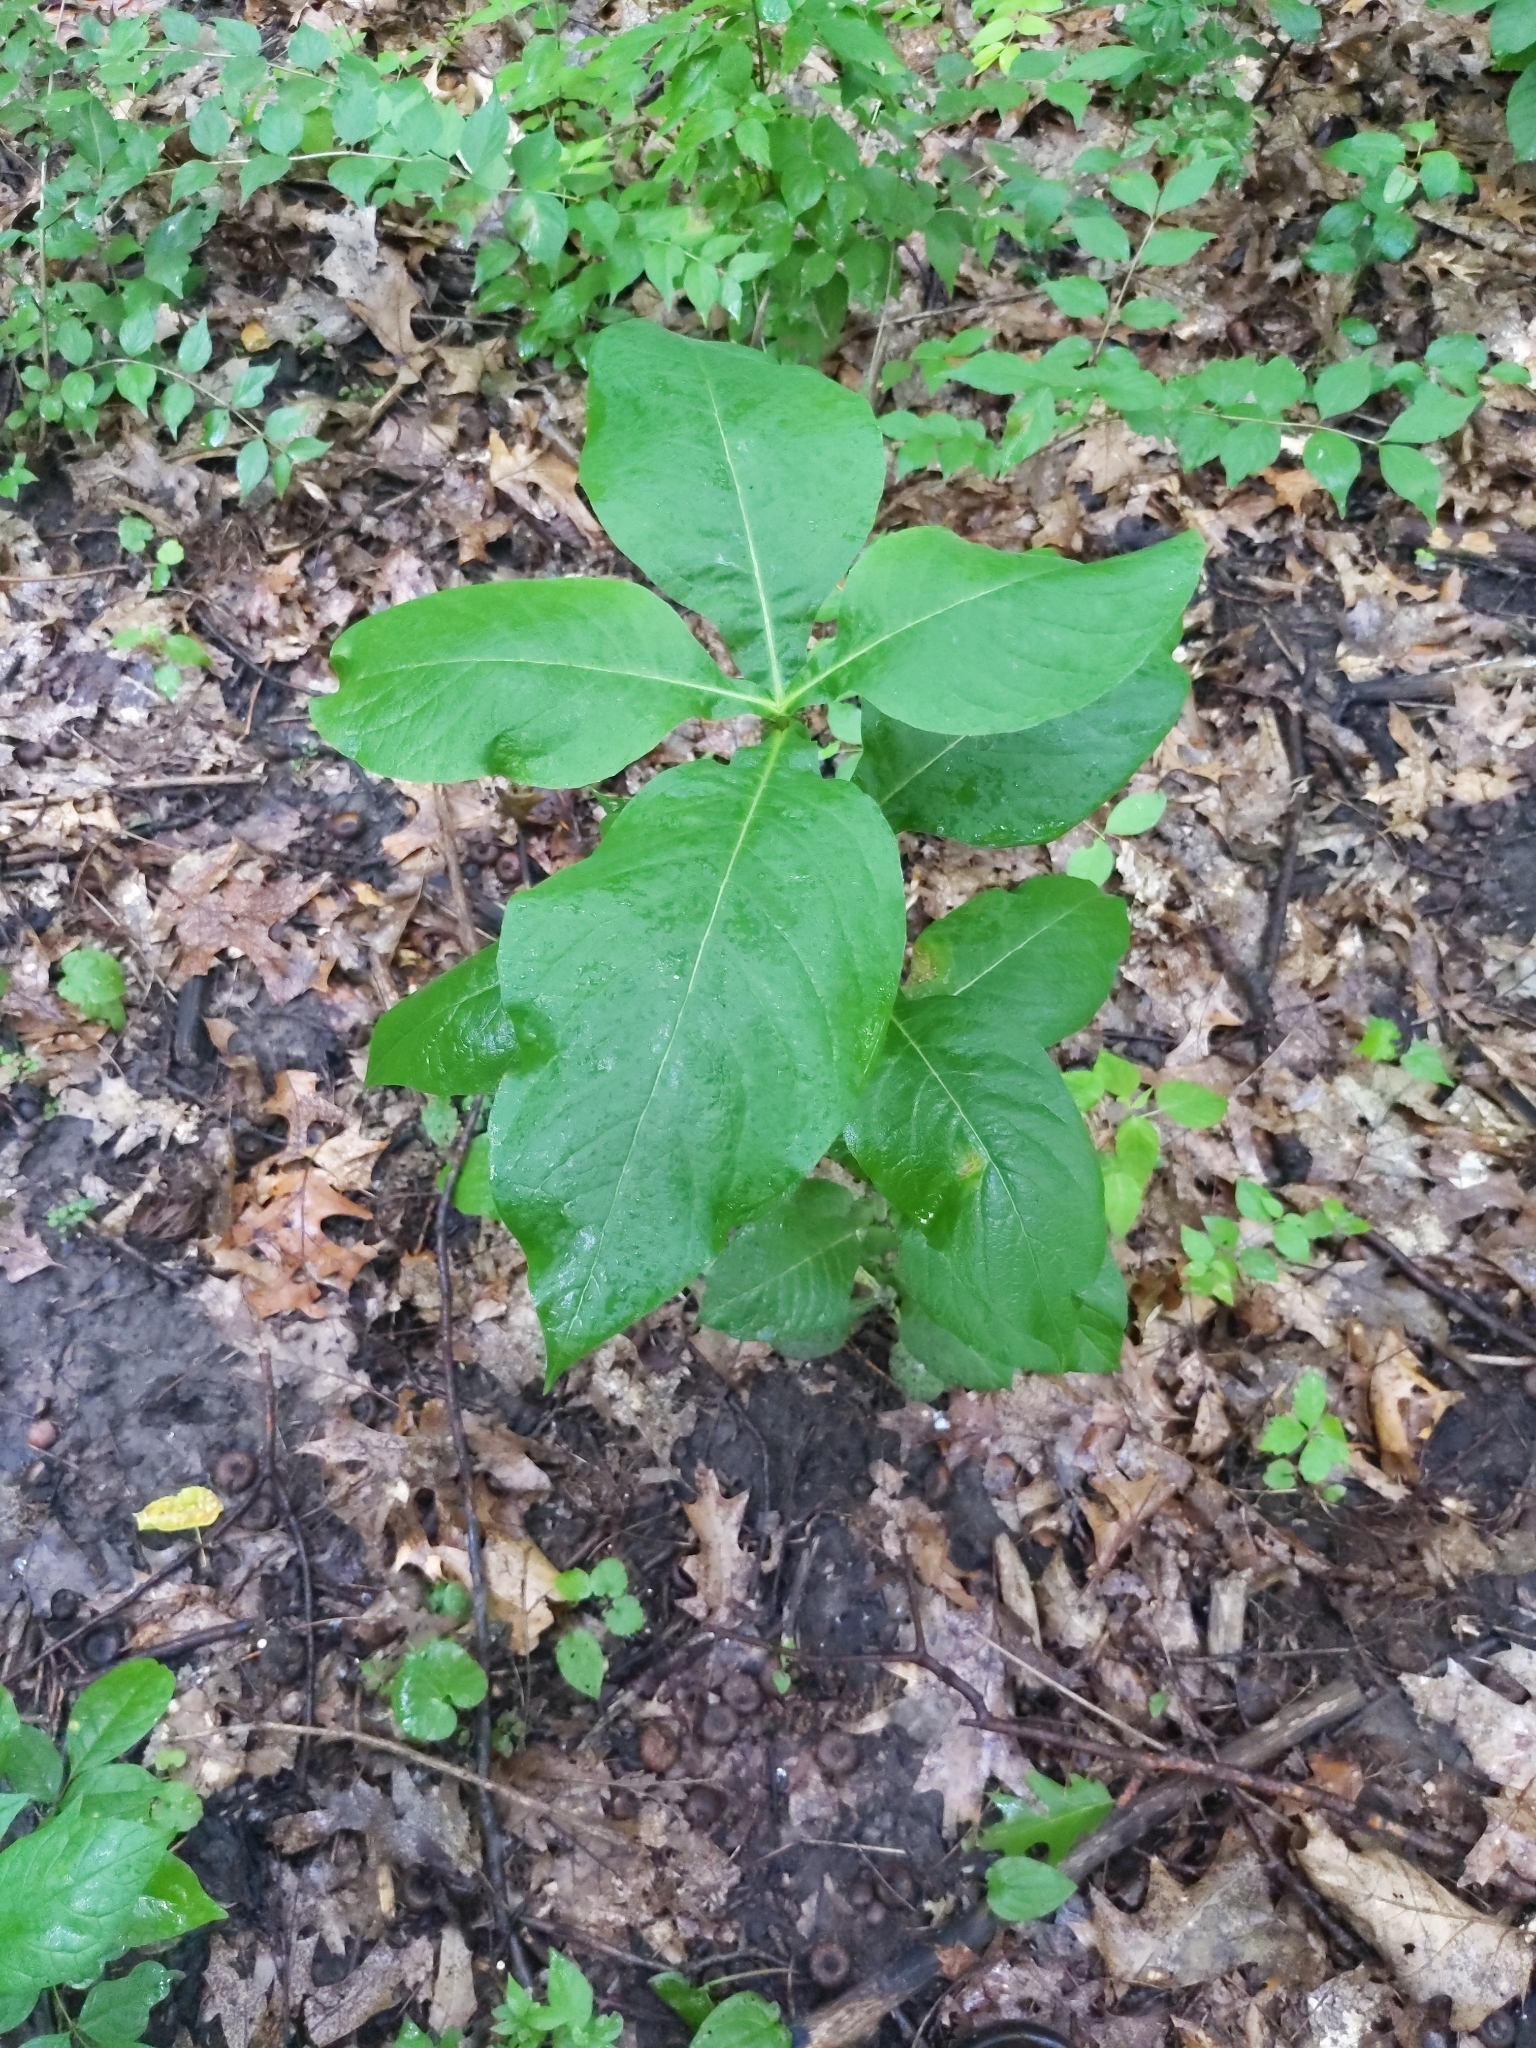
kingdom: Plantae
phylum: Tracheophyta
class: Magnoliopsida
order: Dipsacales
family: Caprifoliaceae
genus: Triosteum
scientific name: Triosteum aurantiacum
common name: Coffee tinker's-weed
